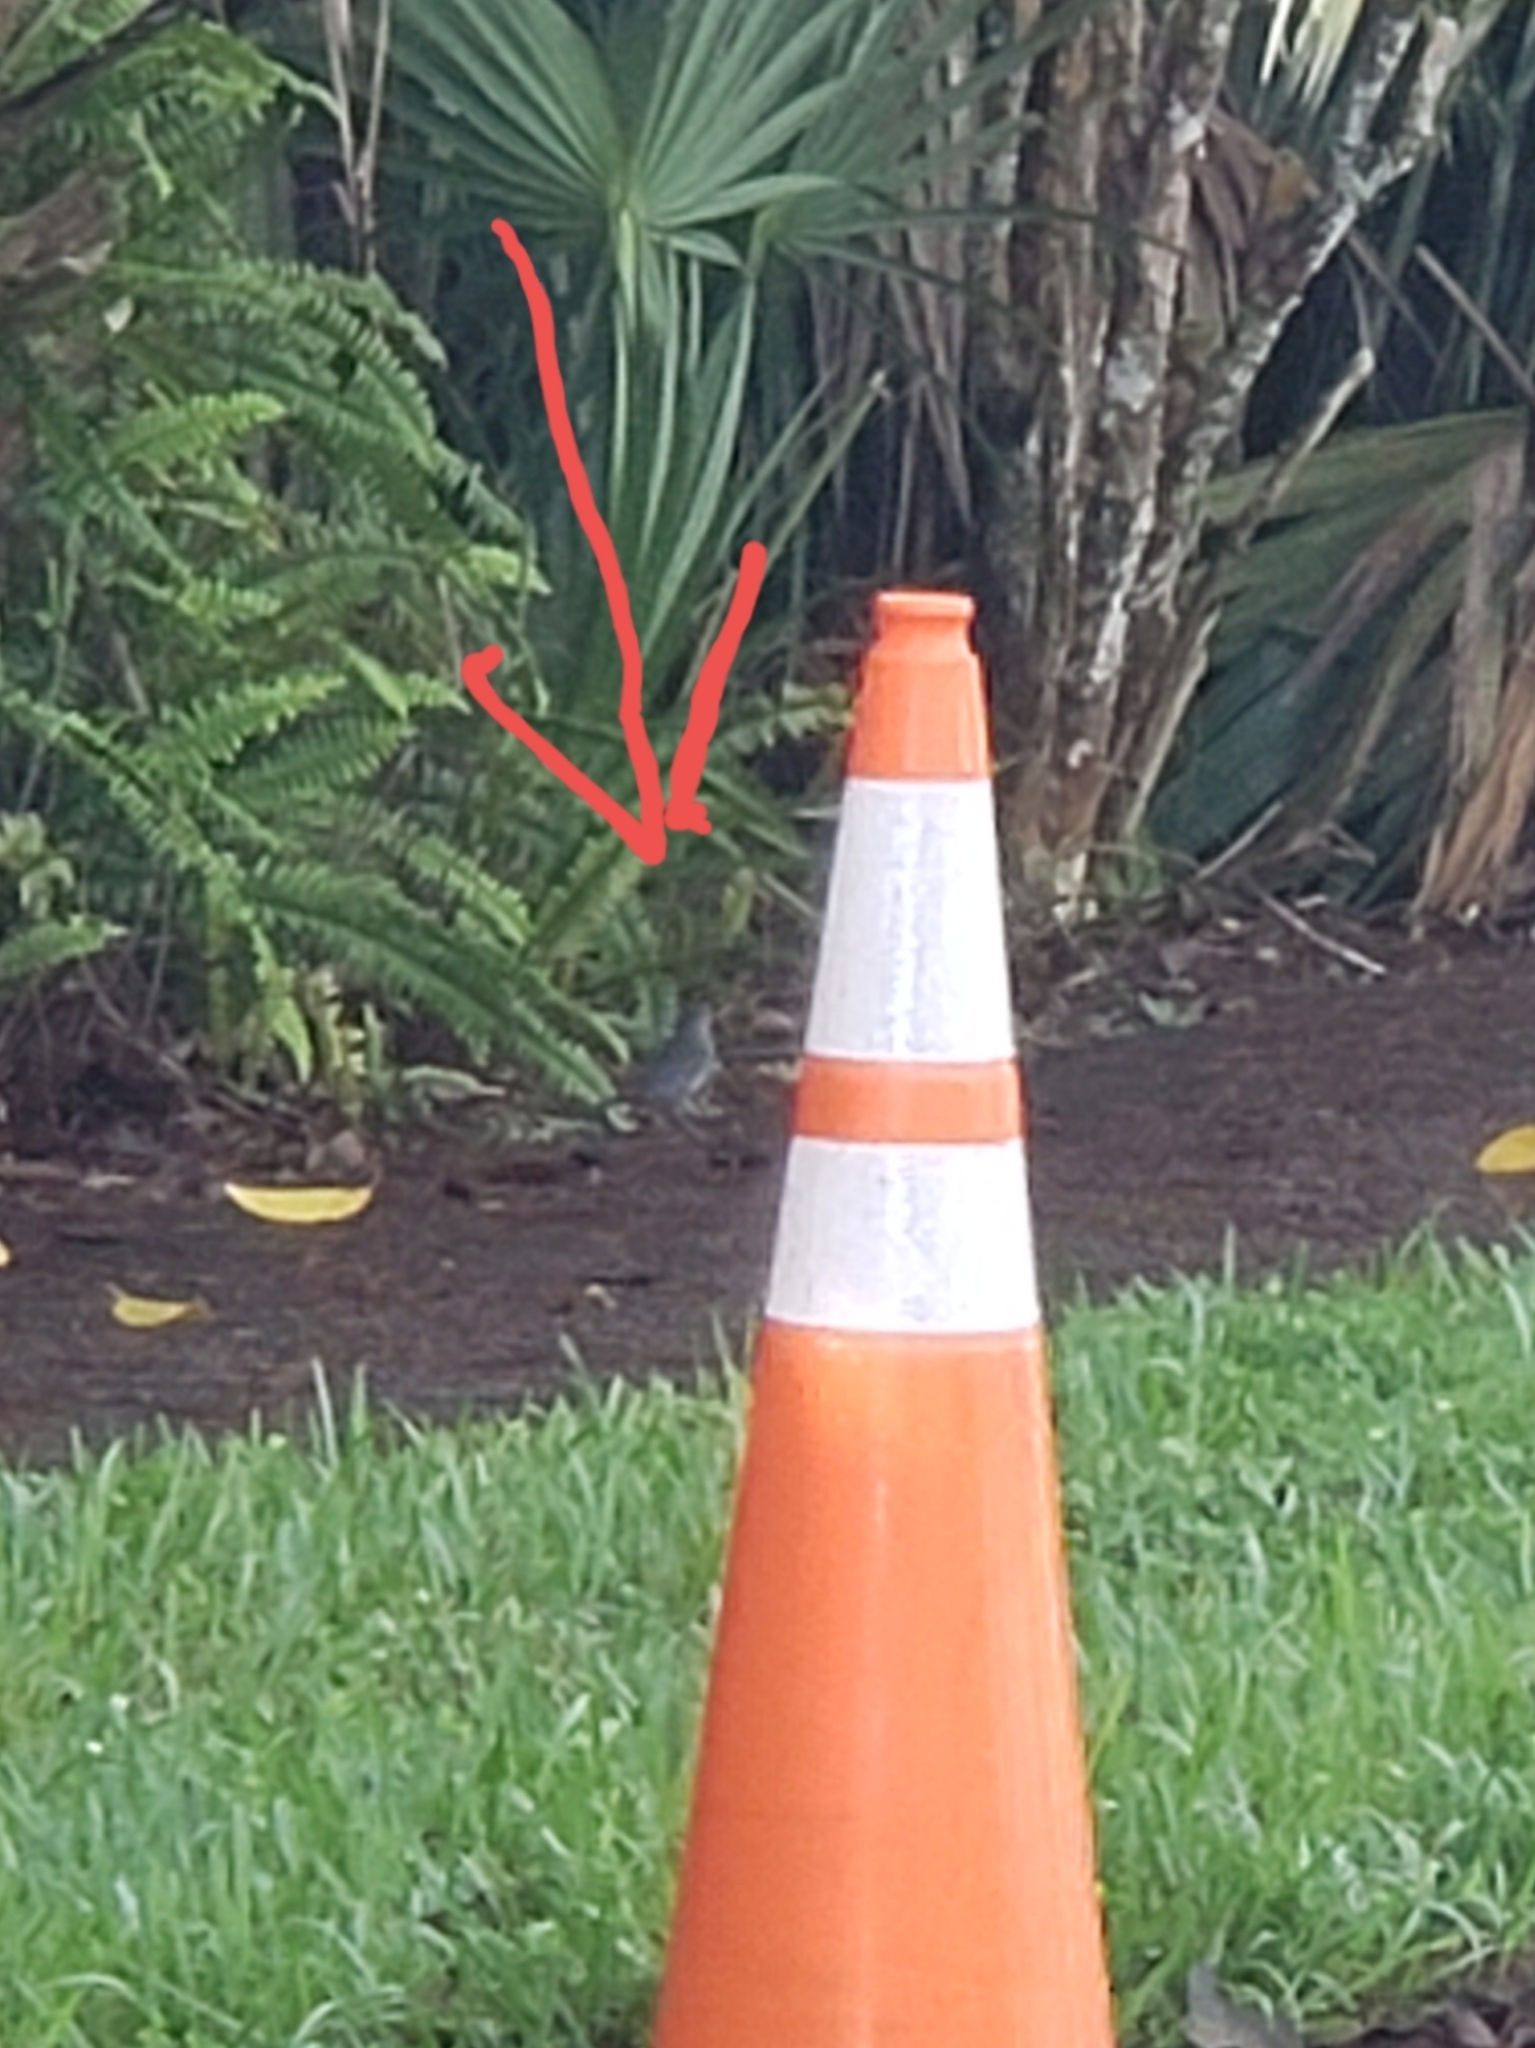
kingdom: Animalia
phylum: Chordata
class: Aves
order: Passeriformes
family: Mimidae
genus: Dumetella
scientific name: Dumetella carolinensis
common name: Gray catbird
